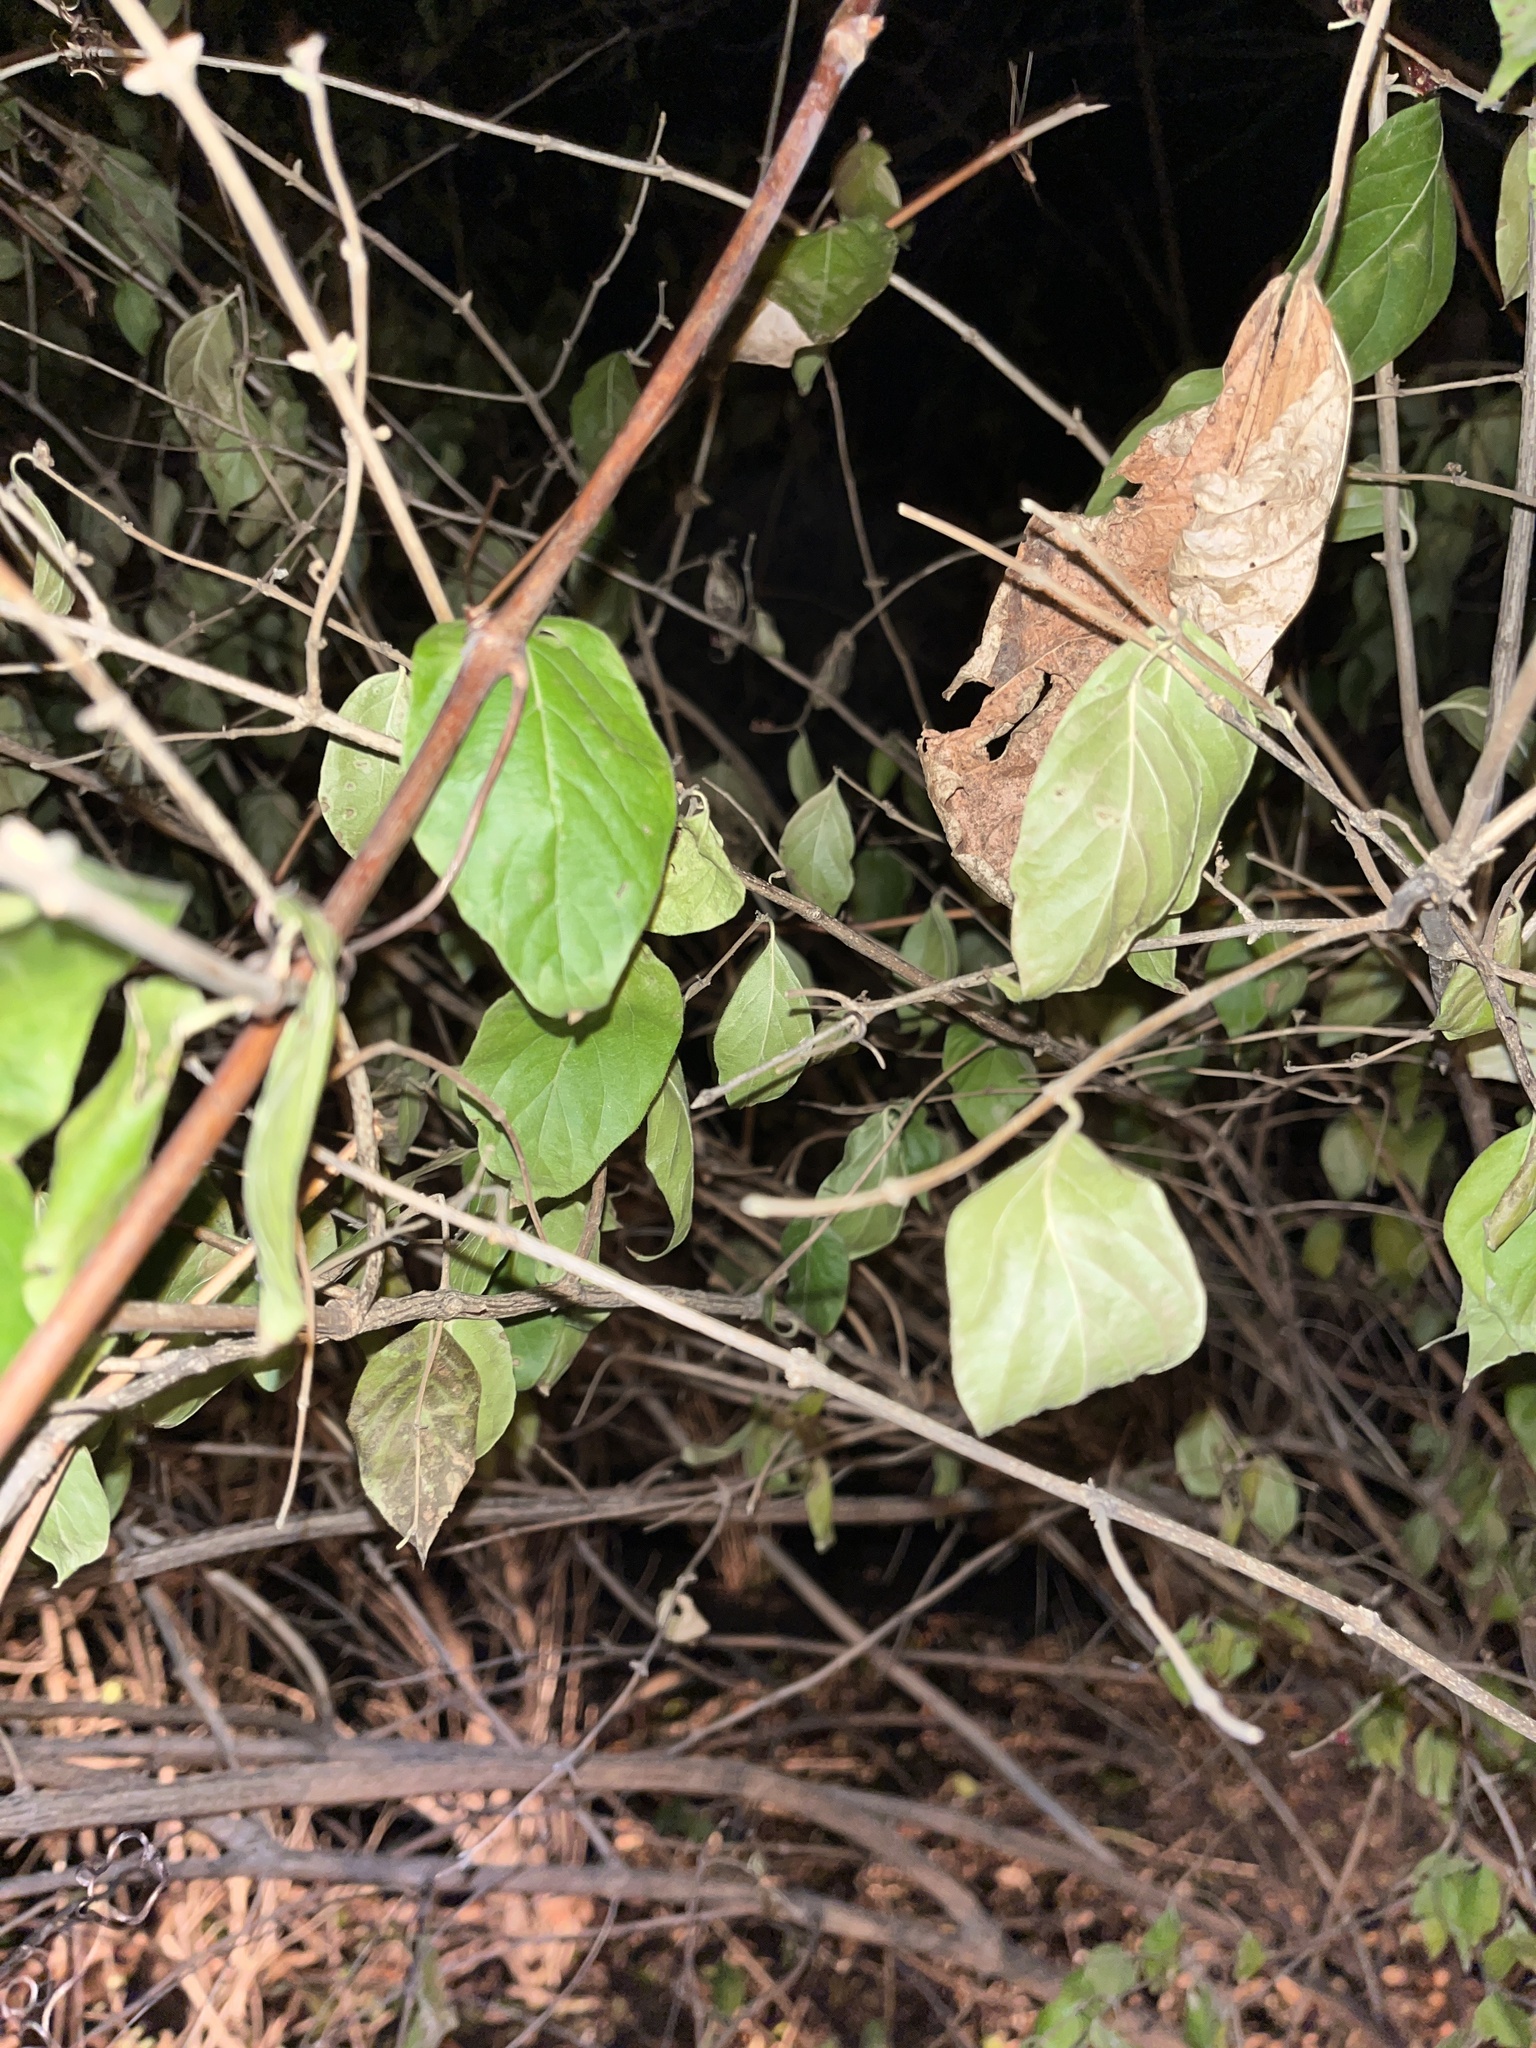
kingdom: Plantae
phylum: Tracheophyta
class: Magnoliopsida
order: Dipsacales
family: Caprifoliaceae
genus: Lonicera
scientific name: Lonicera maackii
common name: Amur honeysuckle
